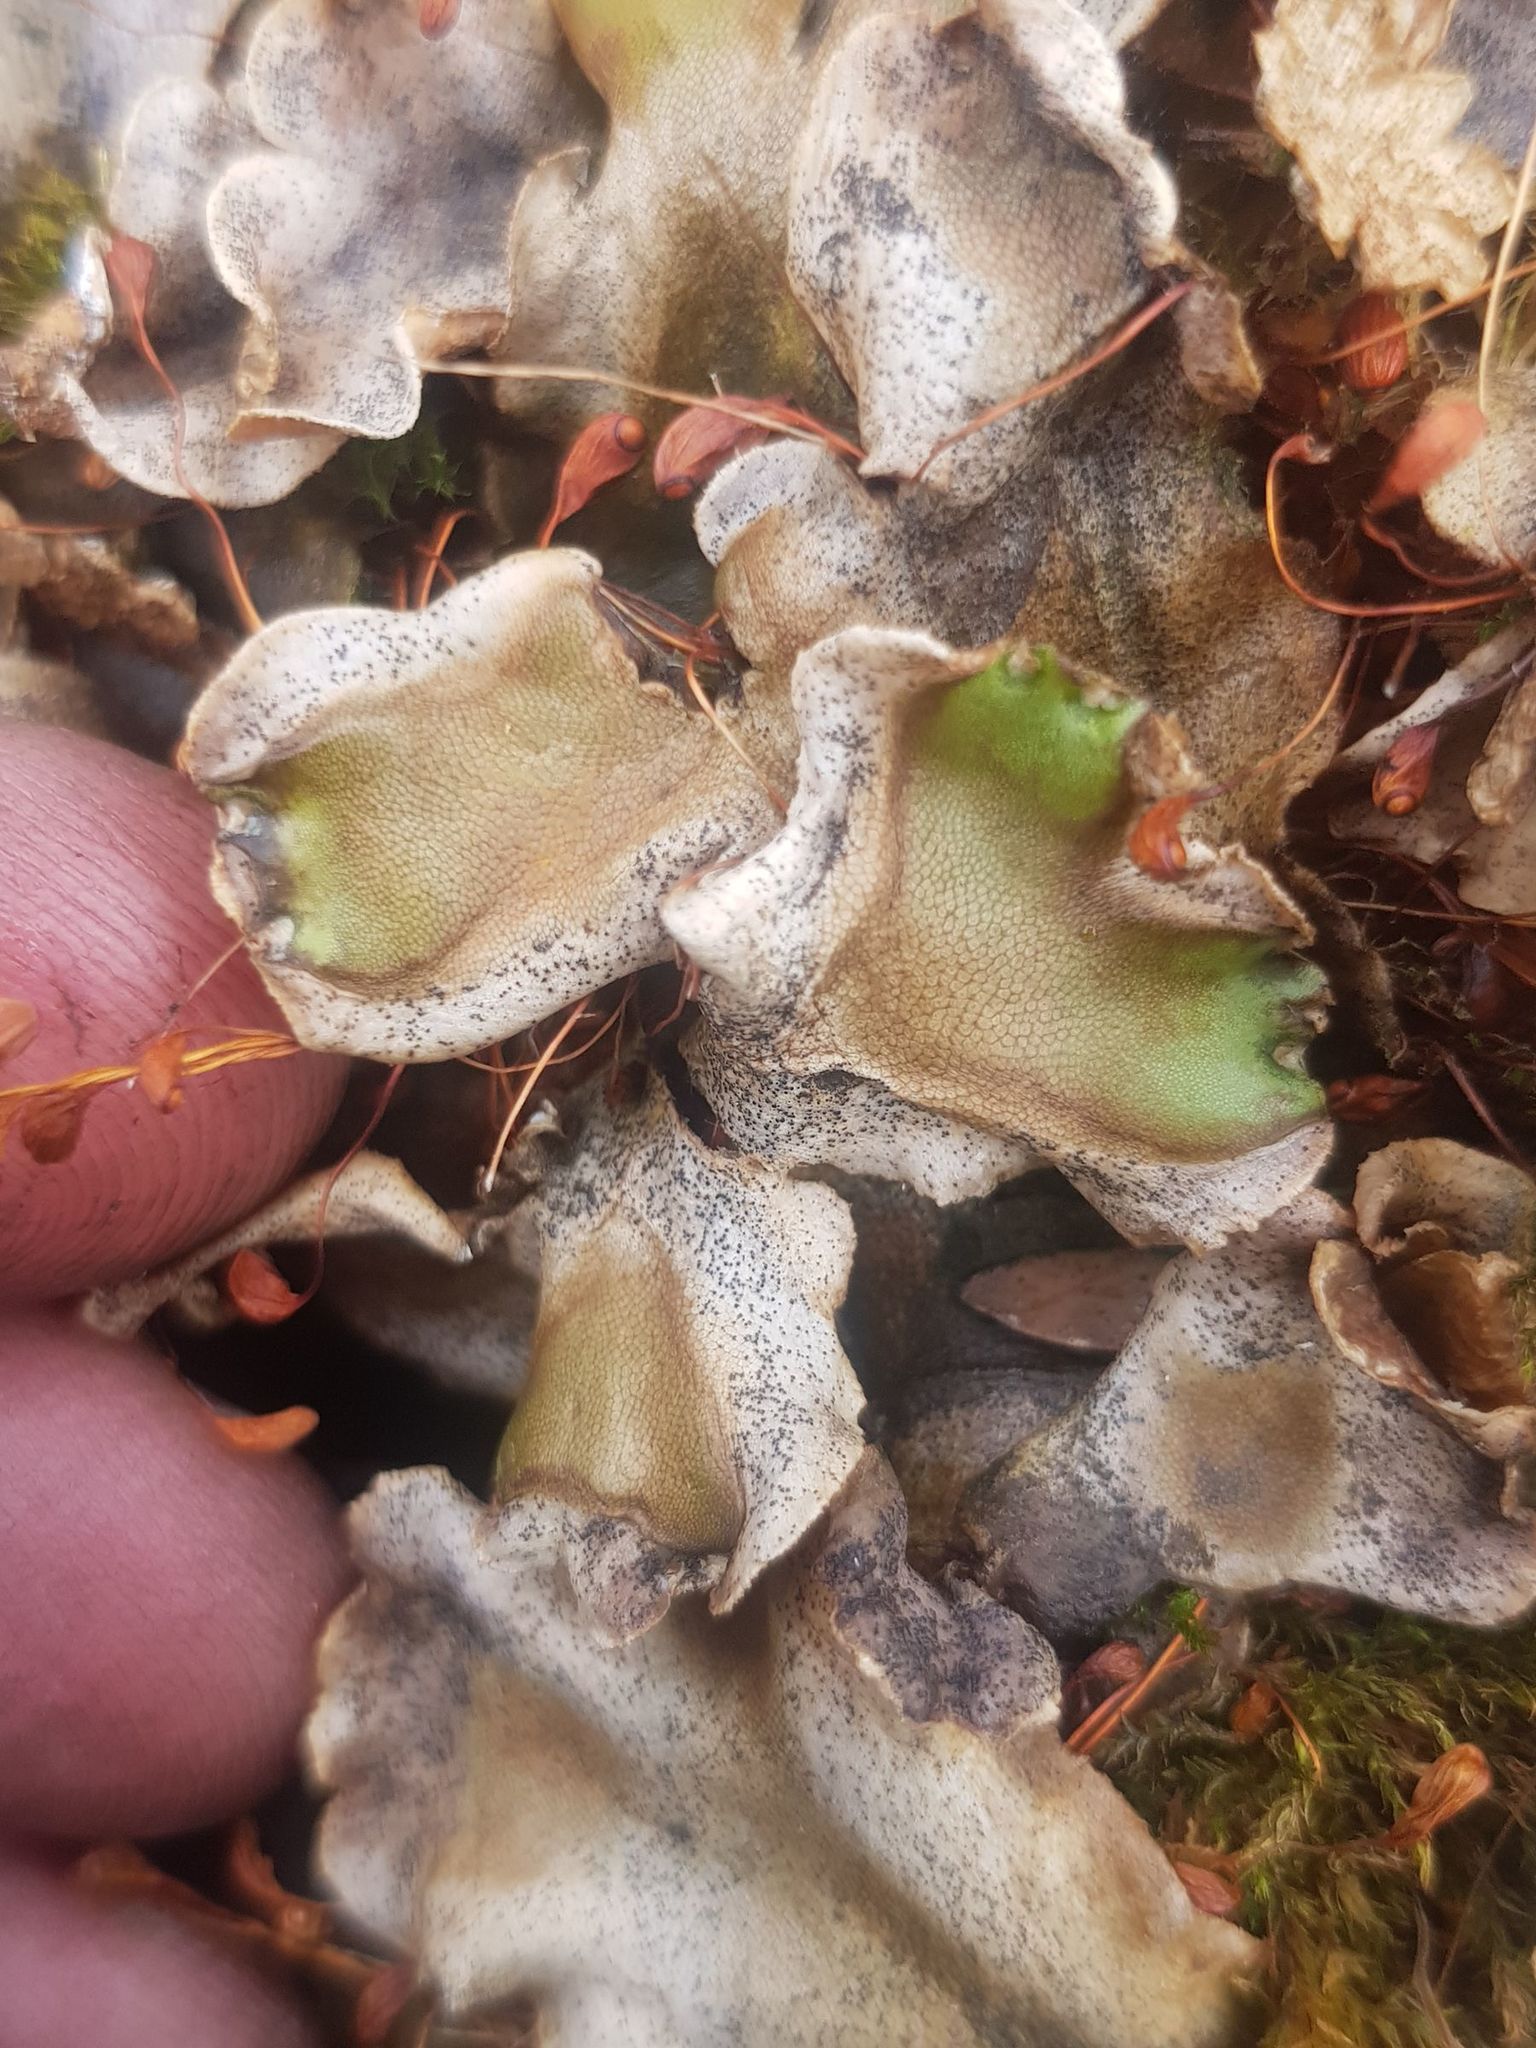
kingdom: Plantae
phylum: Marchantiophyta
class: Marchantiopsida
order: Lunulariales
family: Lunulariaceae
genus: Lunularia
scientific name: Lunularia cruciata
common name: Crescent-cup liverwort
